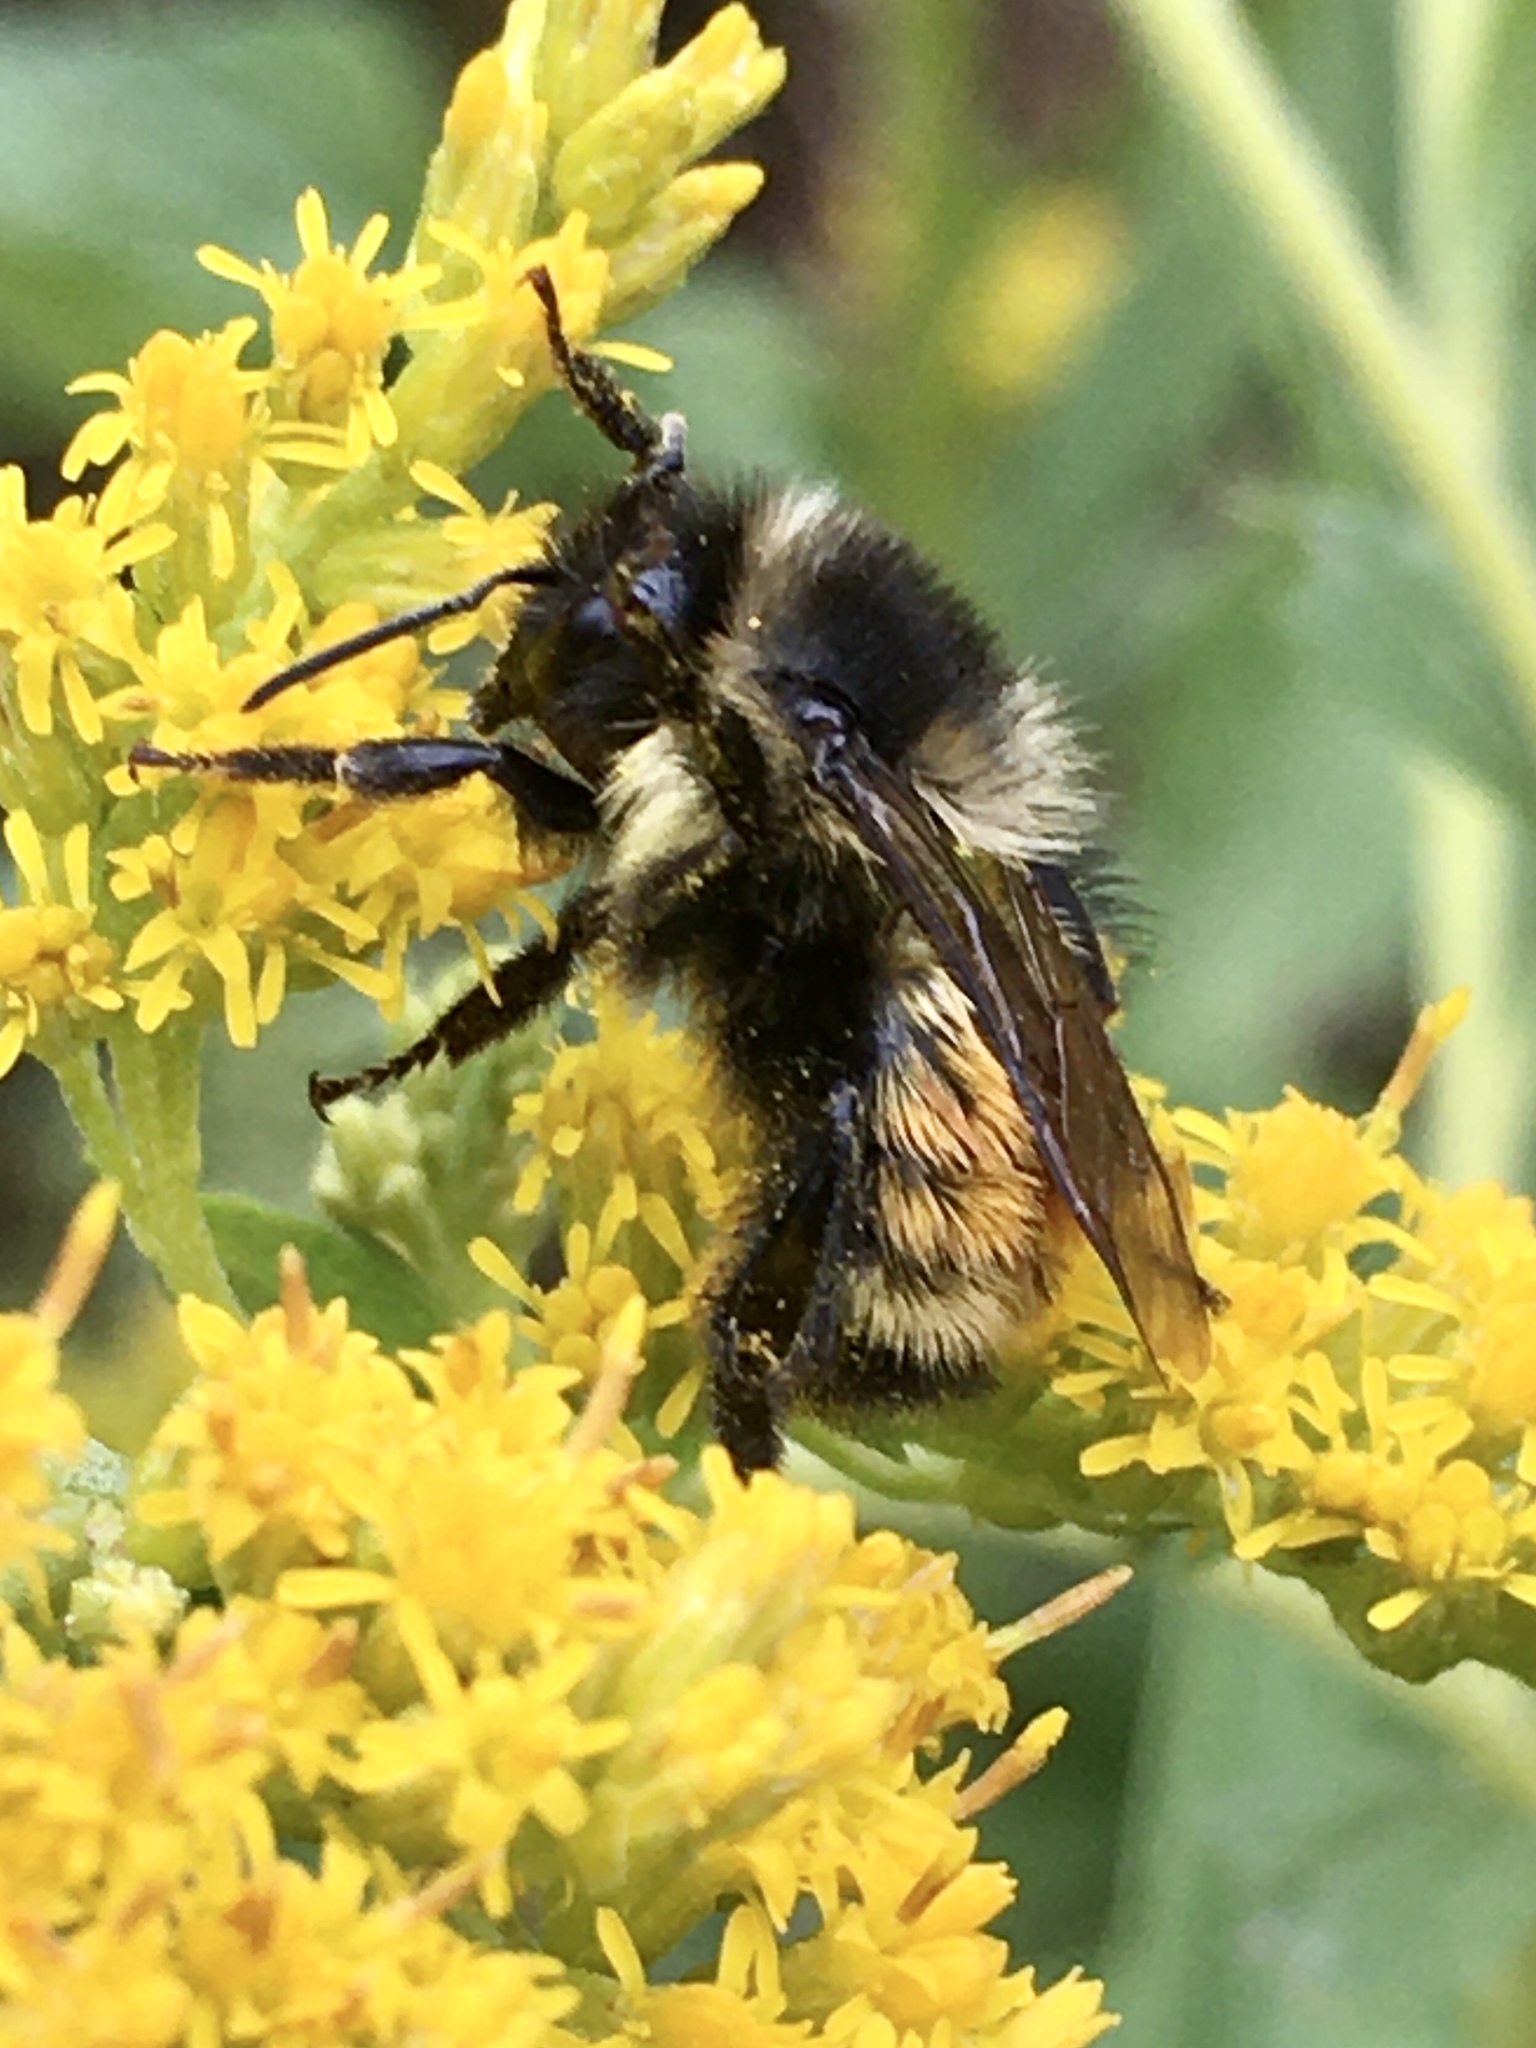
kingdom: Animalia
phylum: Arthropoda
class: Insecta
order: Hymenoptera
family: Apidae
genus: Bombus
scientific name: Bombus ternarius
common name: Tri-colored bumble bee
